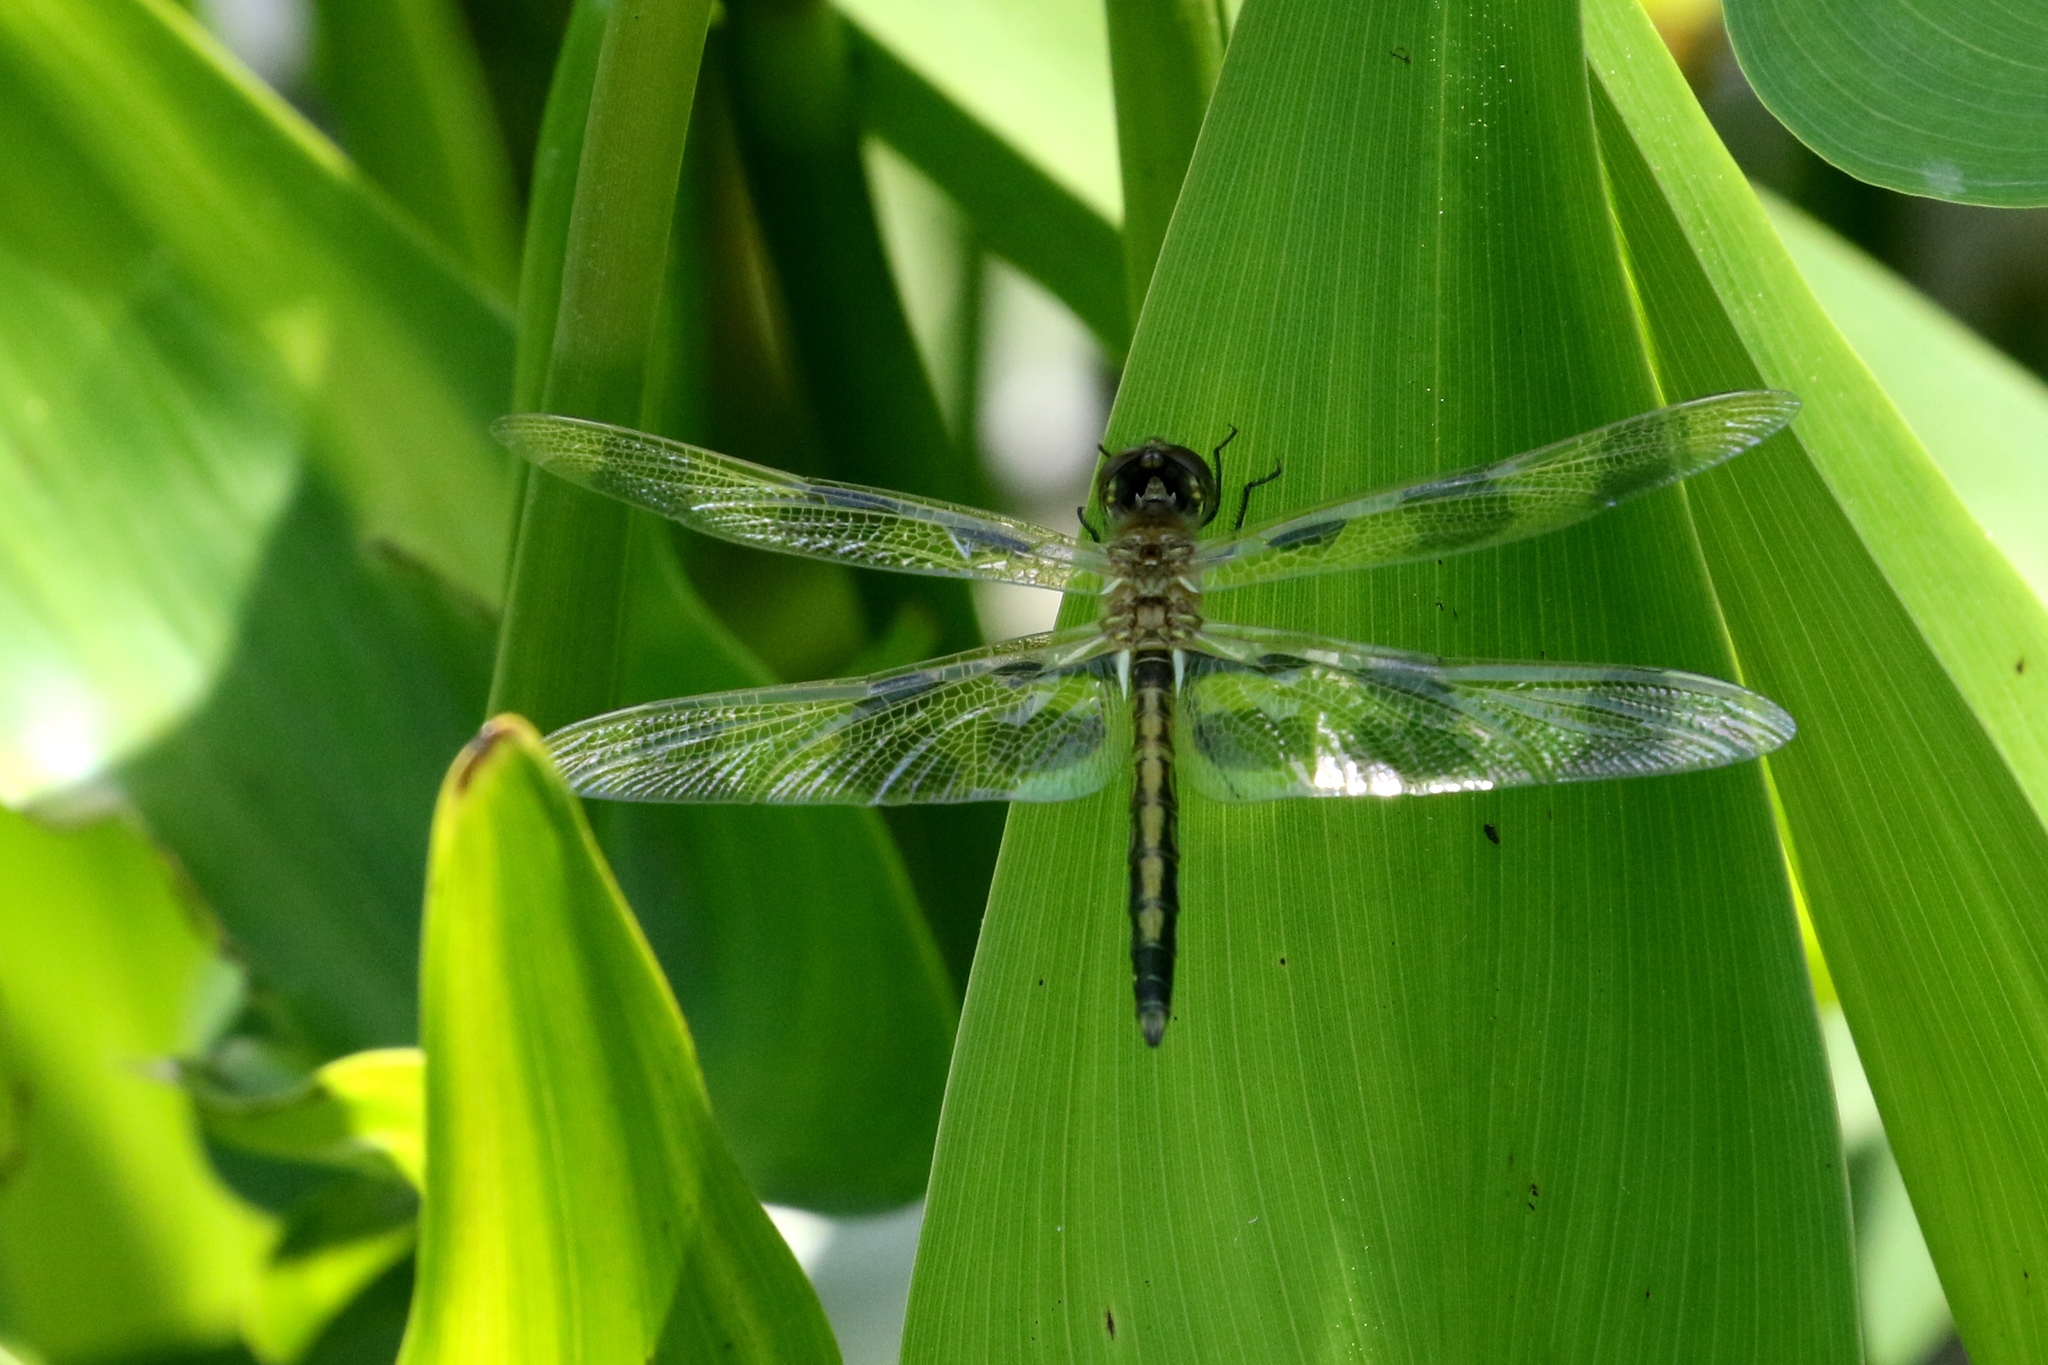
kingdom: Animalia
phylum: Arthropoda
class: Insecta
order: Odonata
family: Libellulidae
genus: Celithemis
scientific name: Celithemis eponina
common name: Halloween pennant
